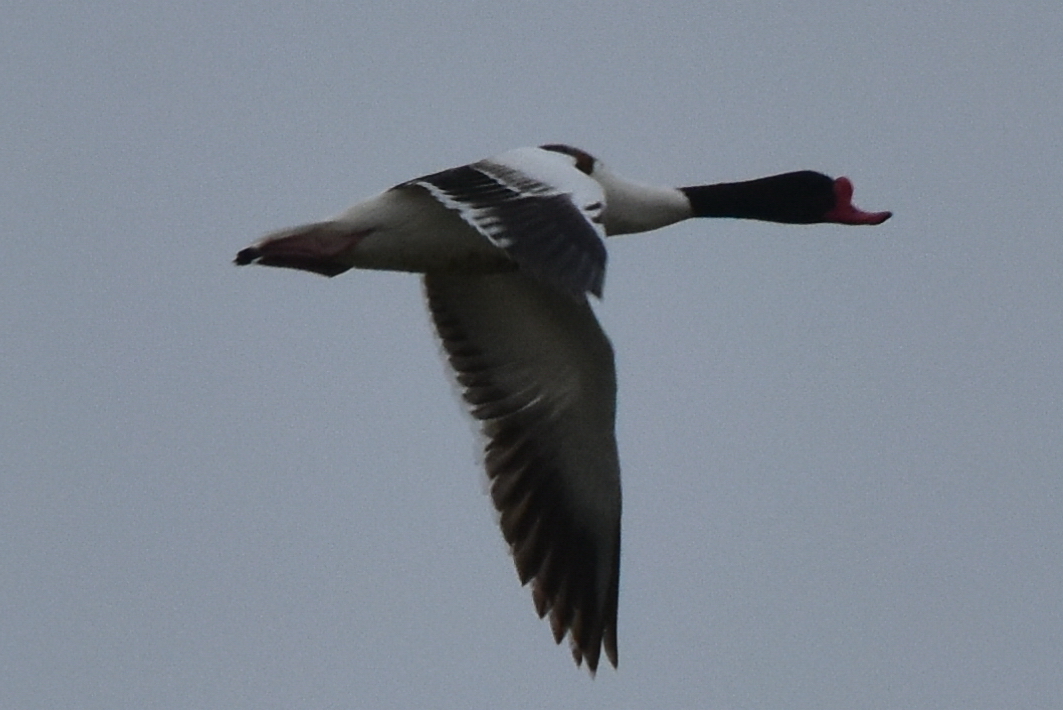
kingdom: Animalia
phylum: Chordata
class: Aves
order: Anseriformes
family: Anatidae
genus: Tadorna
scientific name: Tadorna tadorna
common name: Common shelduck
